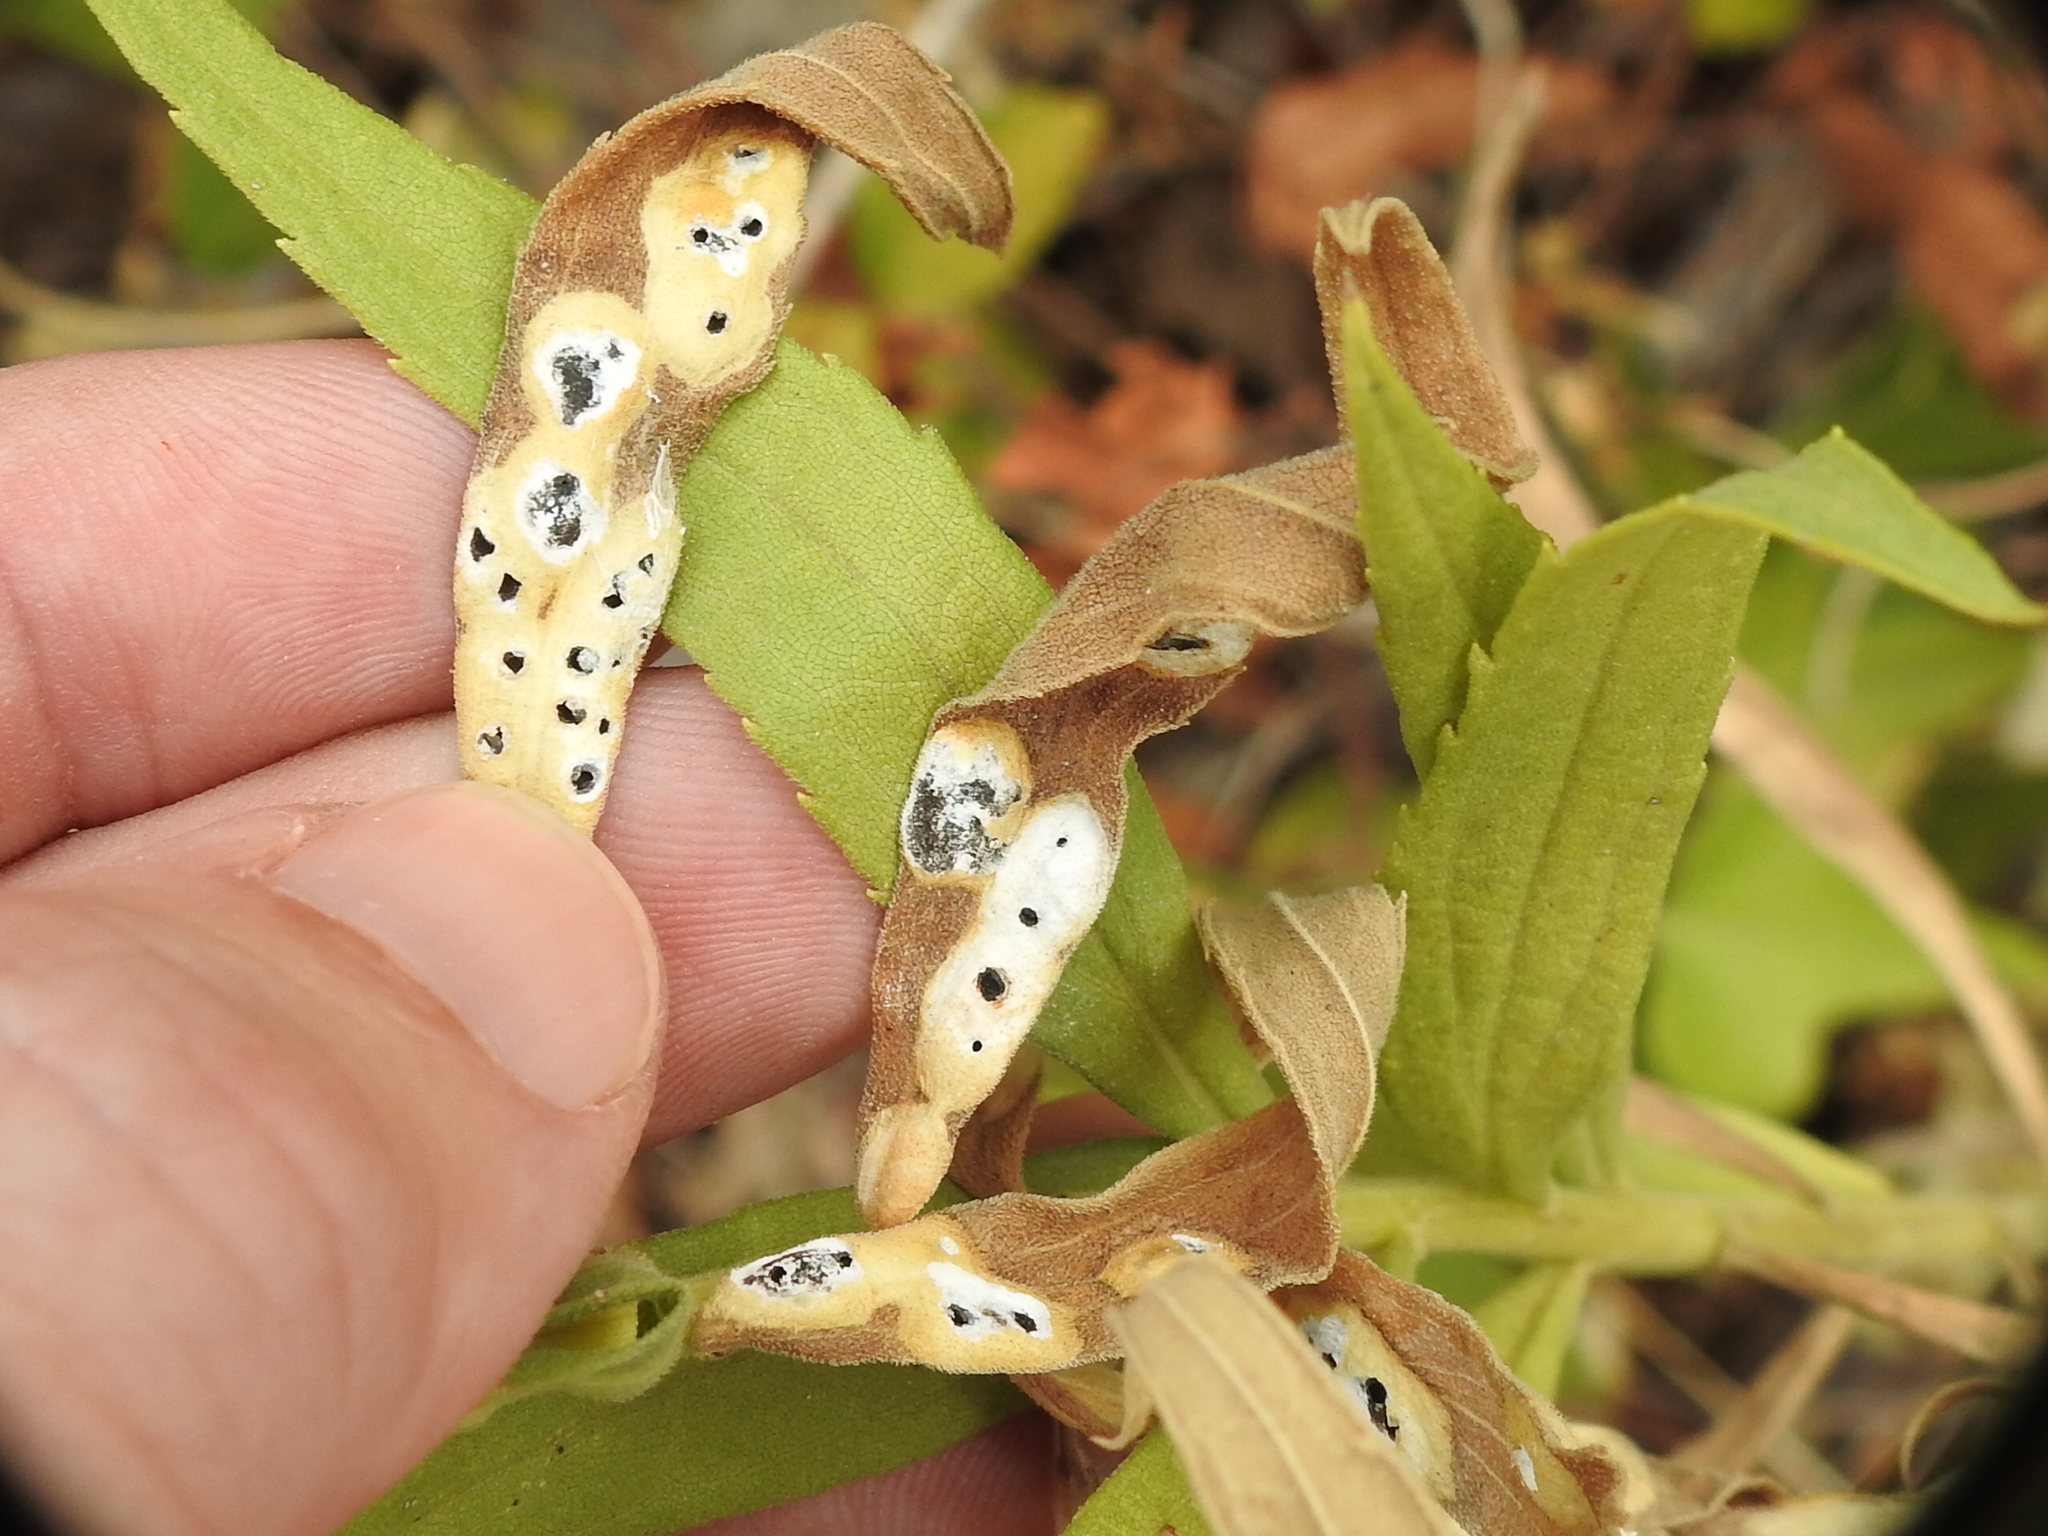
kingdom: Animalia
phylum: Arthropoda
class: Insecta
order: Diptera
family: Cecidomyiidae
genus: Asteromyia
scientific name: Asteromyia carbonifera
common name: Carbonifera goldenrod gall midge
